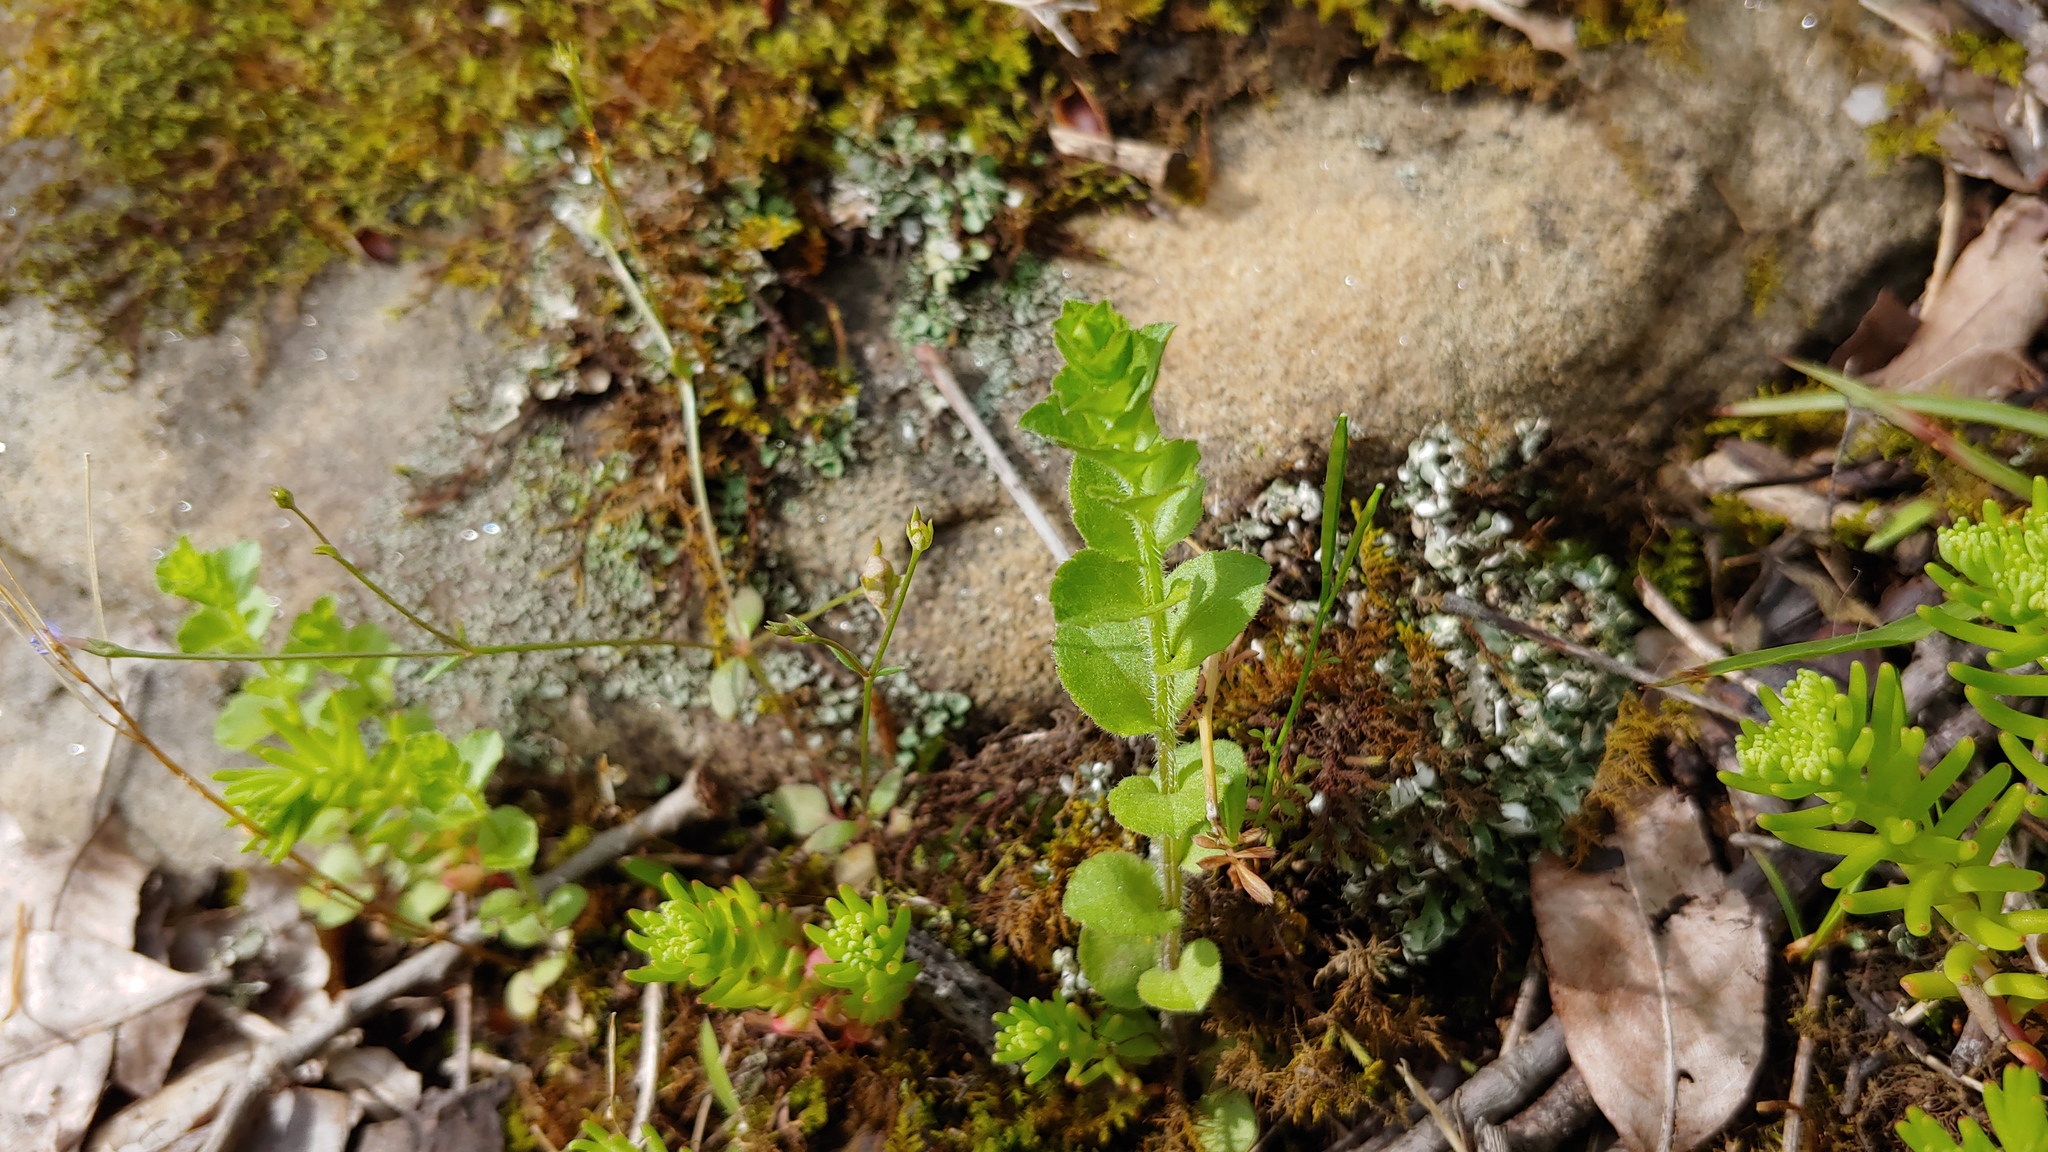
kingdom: Plantae
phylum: Tracheophyta
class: Magnoliopsida
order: Asterales
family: Campanulaceae
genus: Triodanis
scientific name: Triodanis perfoliata
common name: Clasping venus' looking-glass
